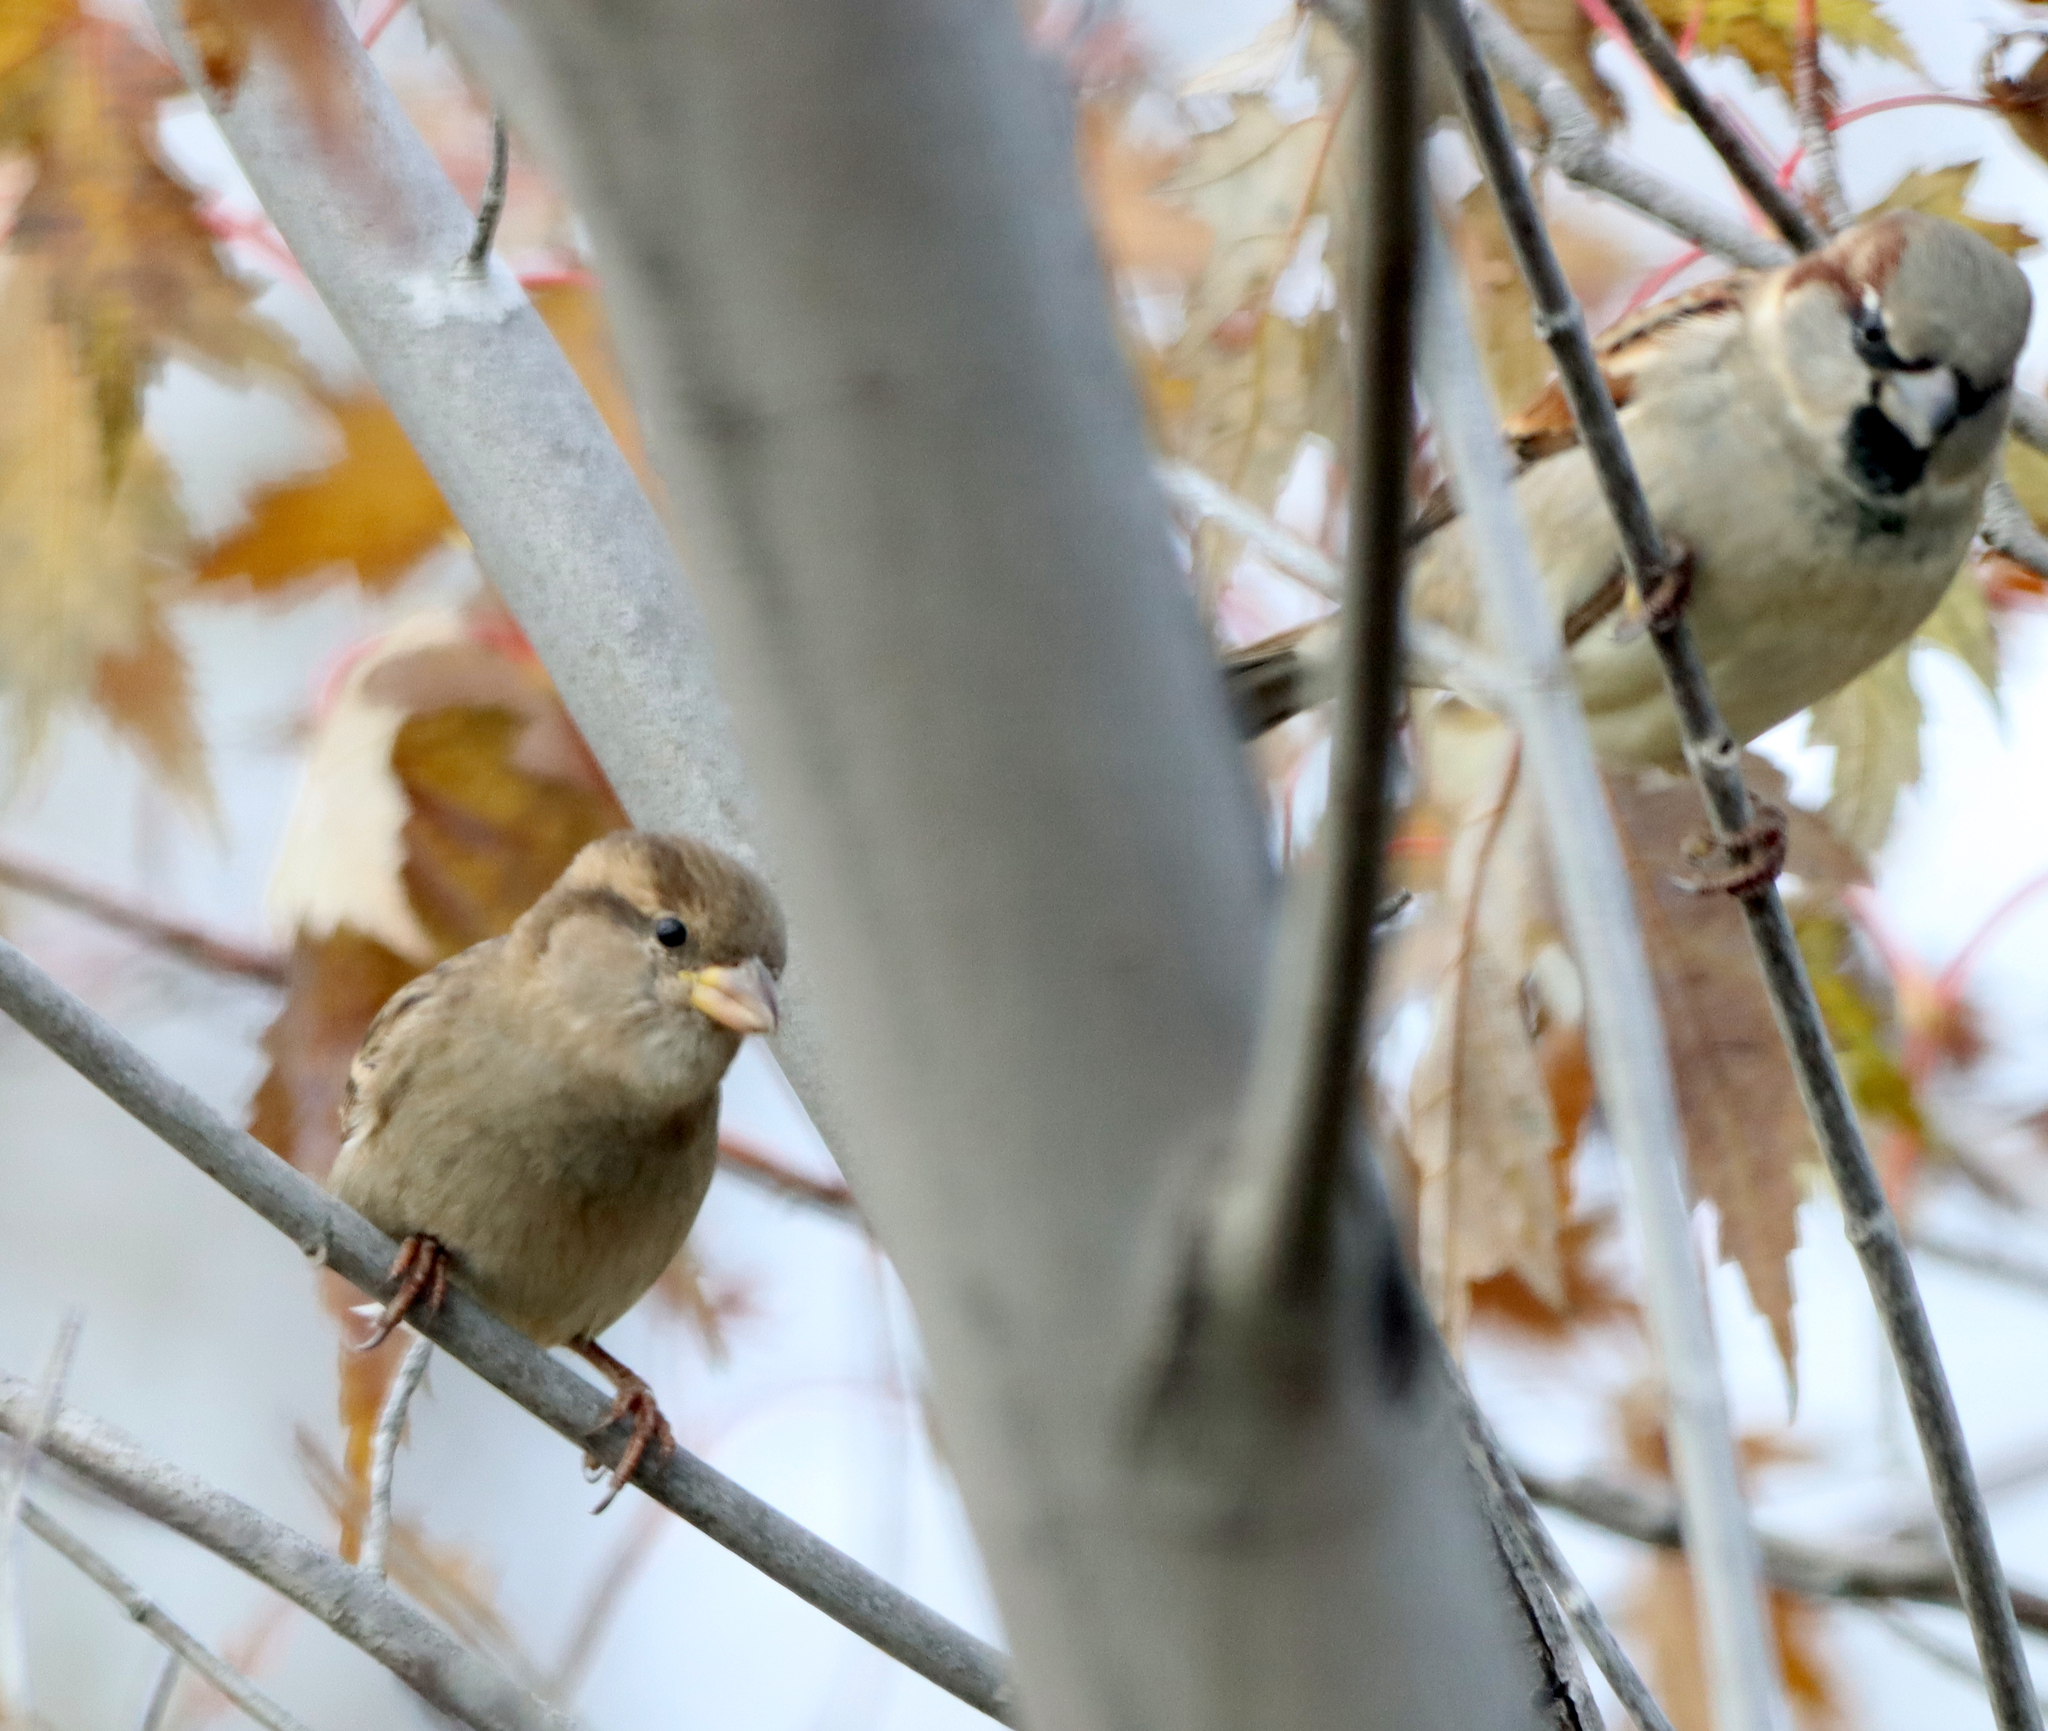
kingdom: Animalia
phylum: Chordata
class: Aves
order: Passeriformes
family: Passeridae
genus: Passer
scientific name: Passer domesticus
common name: House sparrow
